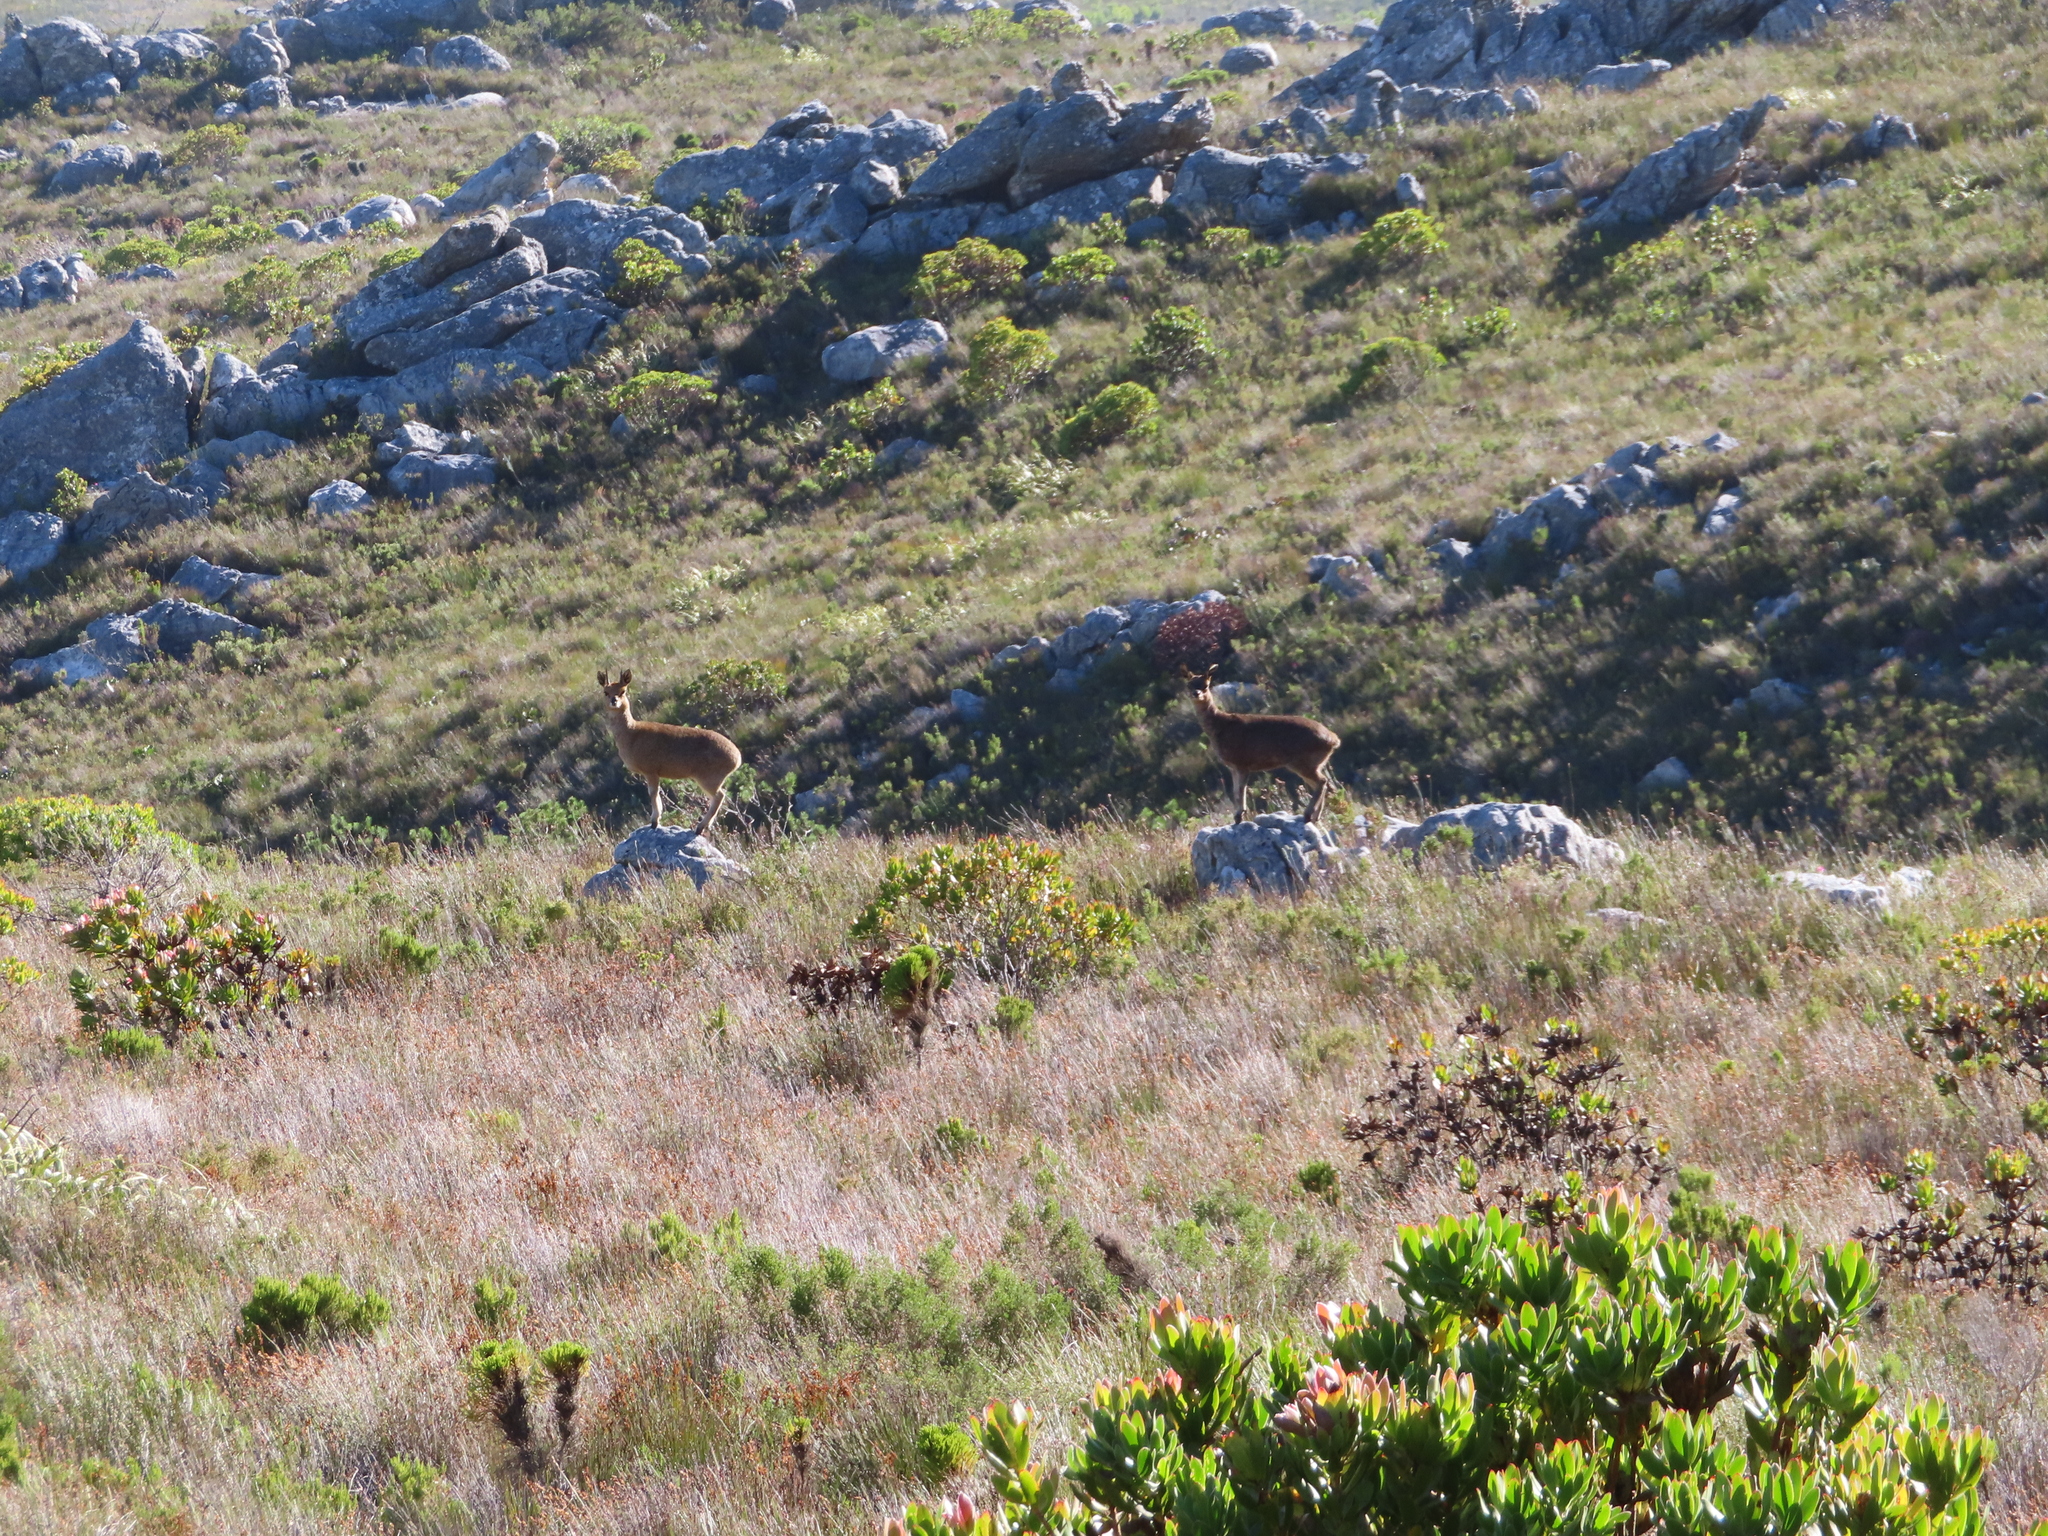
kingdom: Animalia
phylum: Chordata
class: Mammalia
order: Artiodactyla
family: Bovidae
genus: Oreotragus
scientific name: Oreotragus oreotragus
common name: Klipspringer
